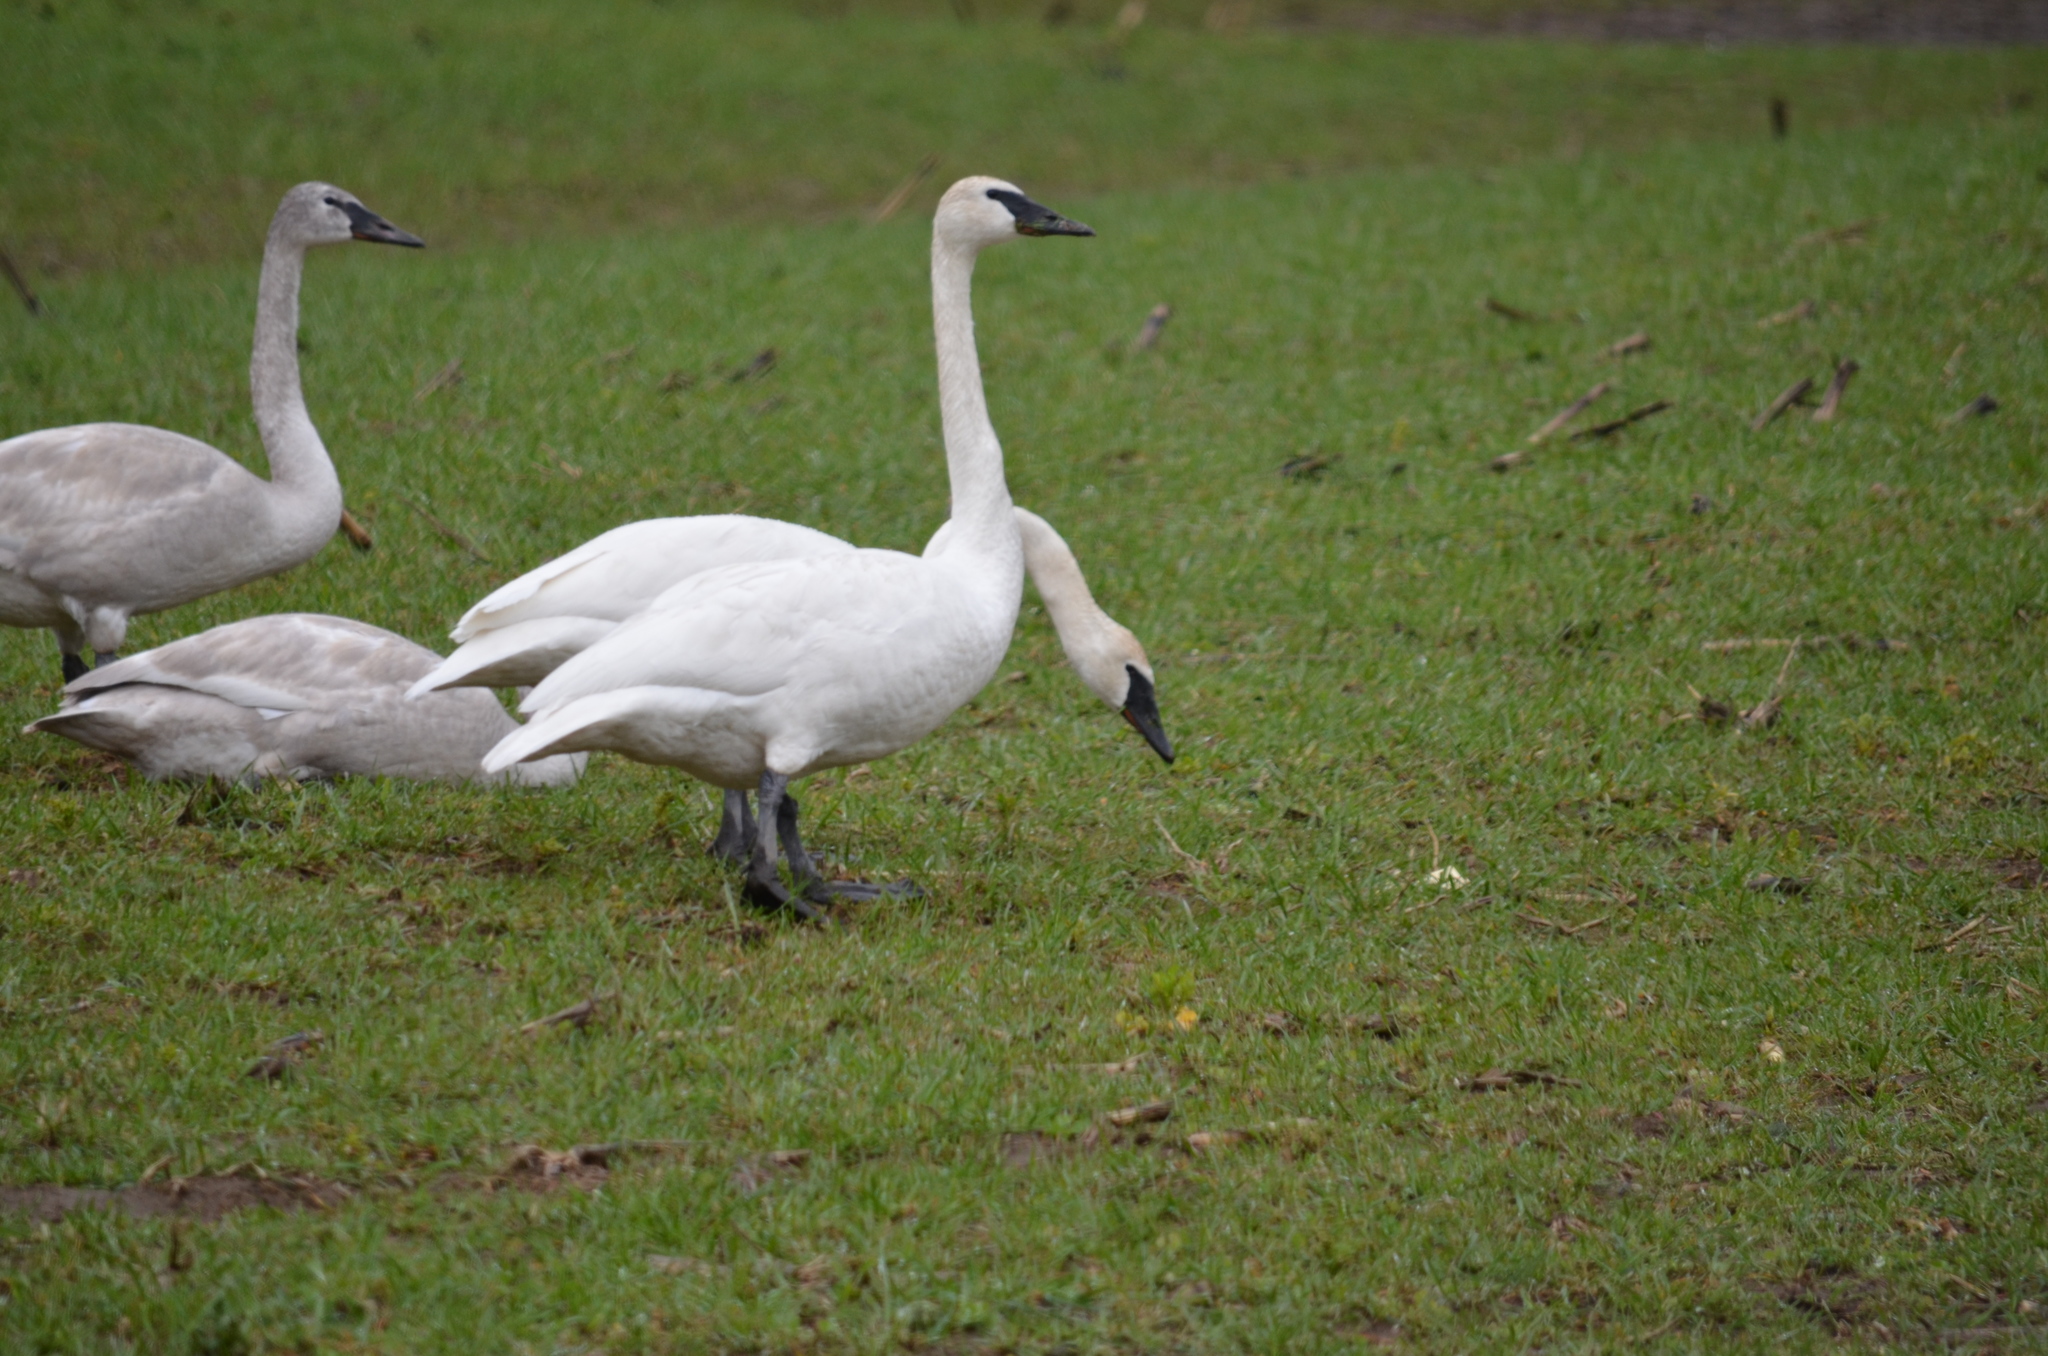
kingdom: Animalia
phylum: Chordata
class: Aves
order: Anseriformes
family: Anatidae
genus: Cygnus
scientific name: Cygnus buccinator
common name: Trumpeter swan
